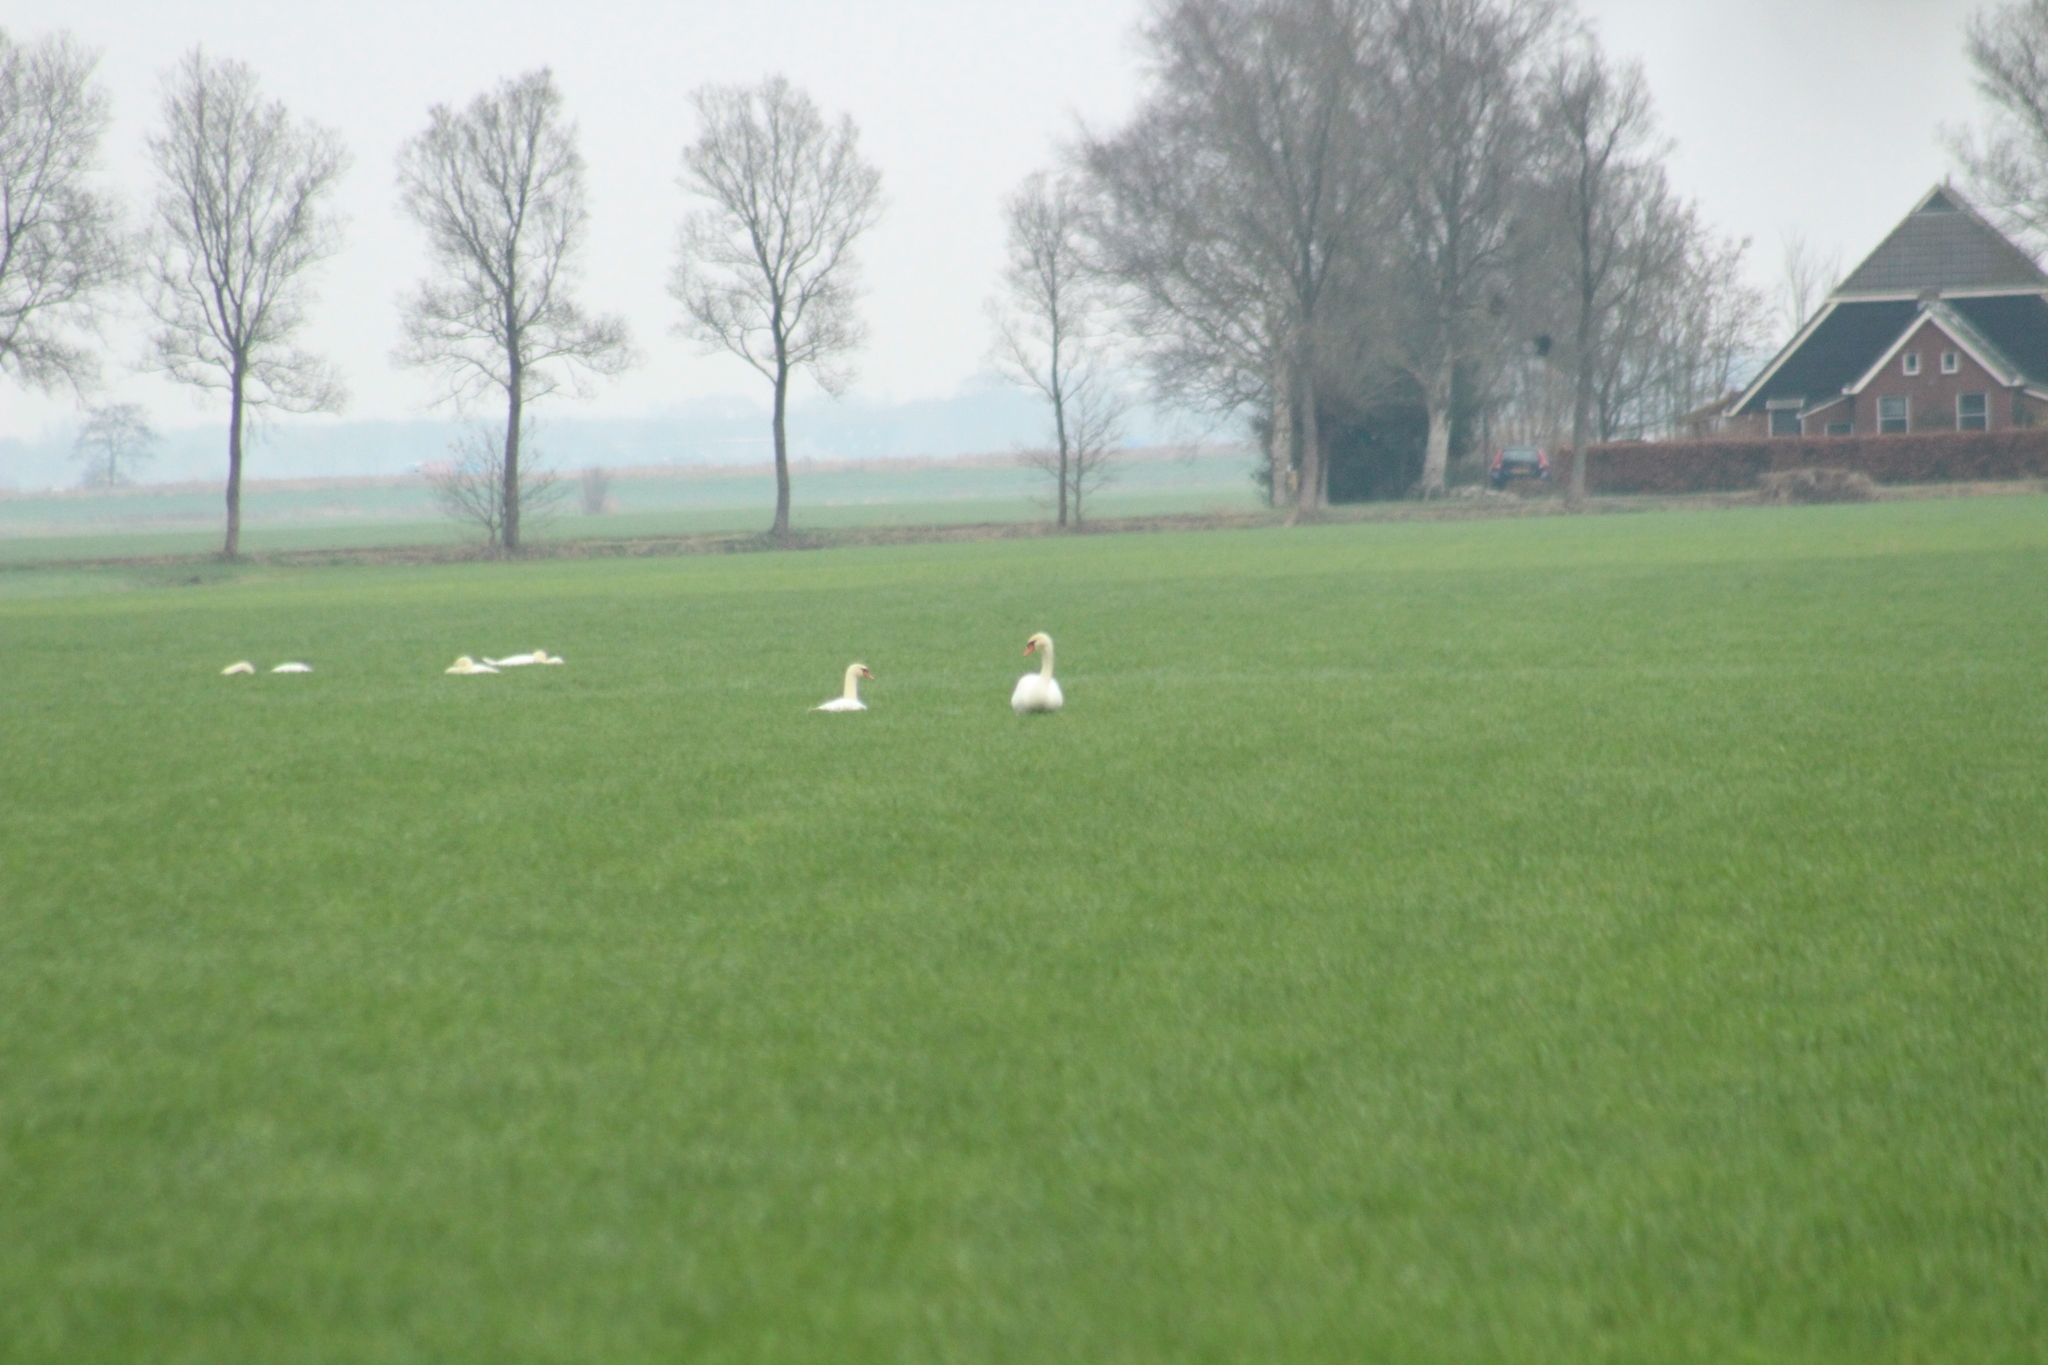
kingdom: Animalia
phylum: Chordata
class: Aves
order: Anseriformes
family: Anatidae
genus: Cygnus
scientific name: Cygnus olor
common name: Mute swan
